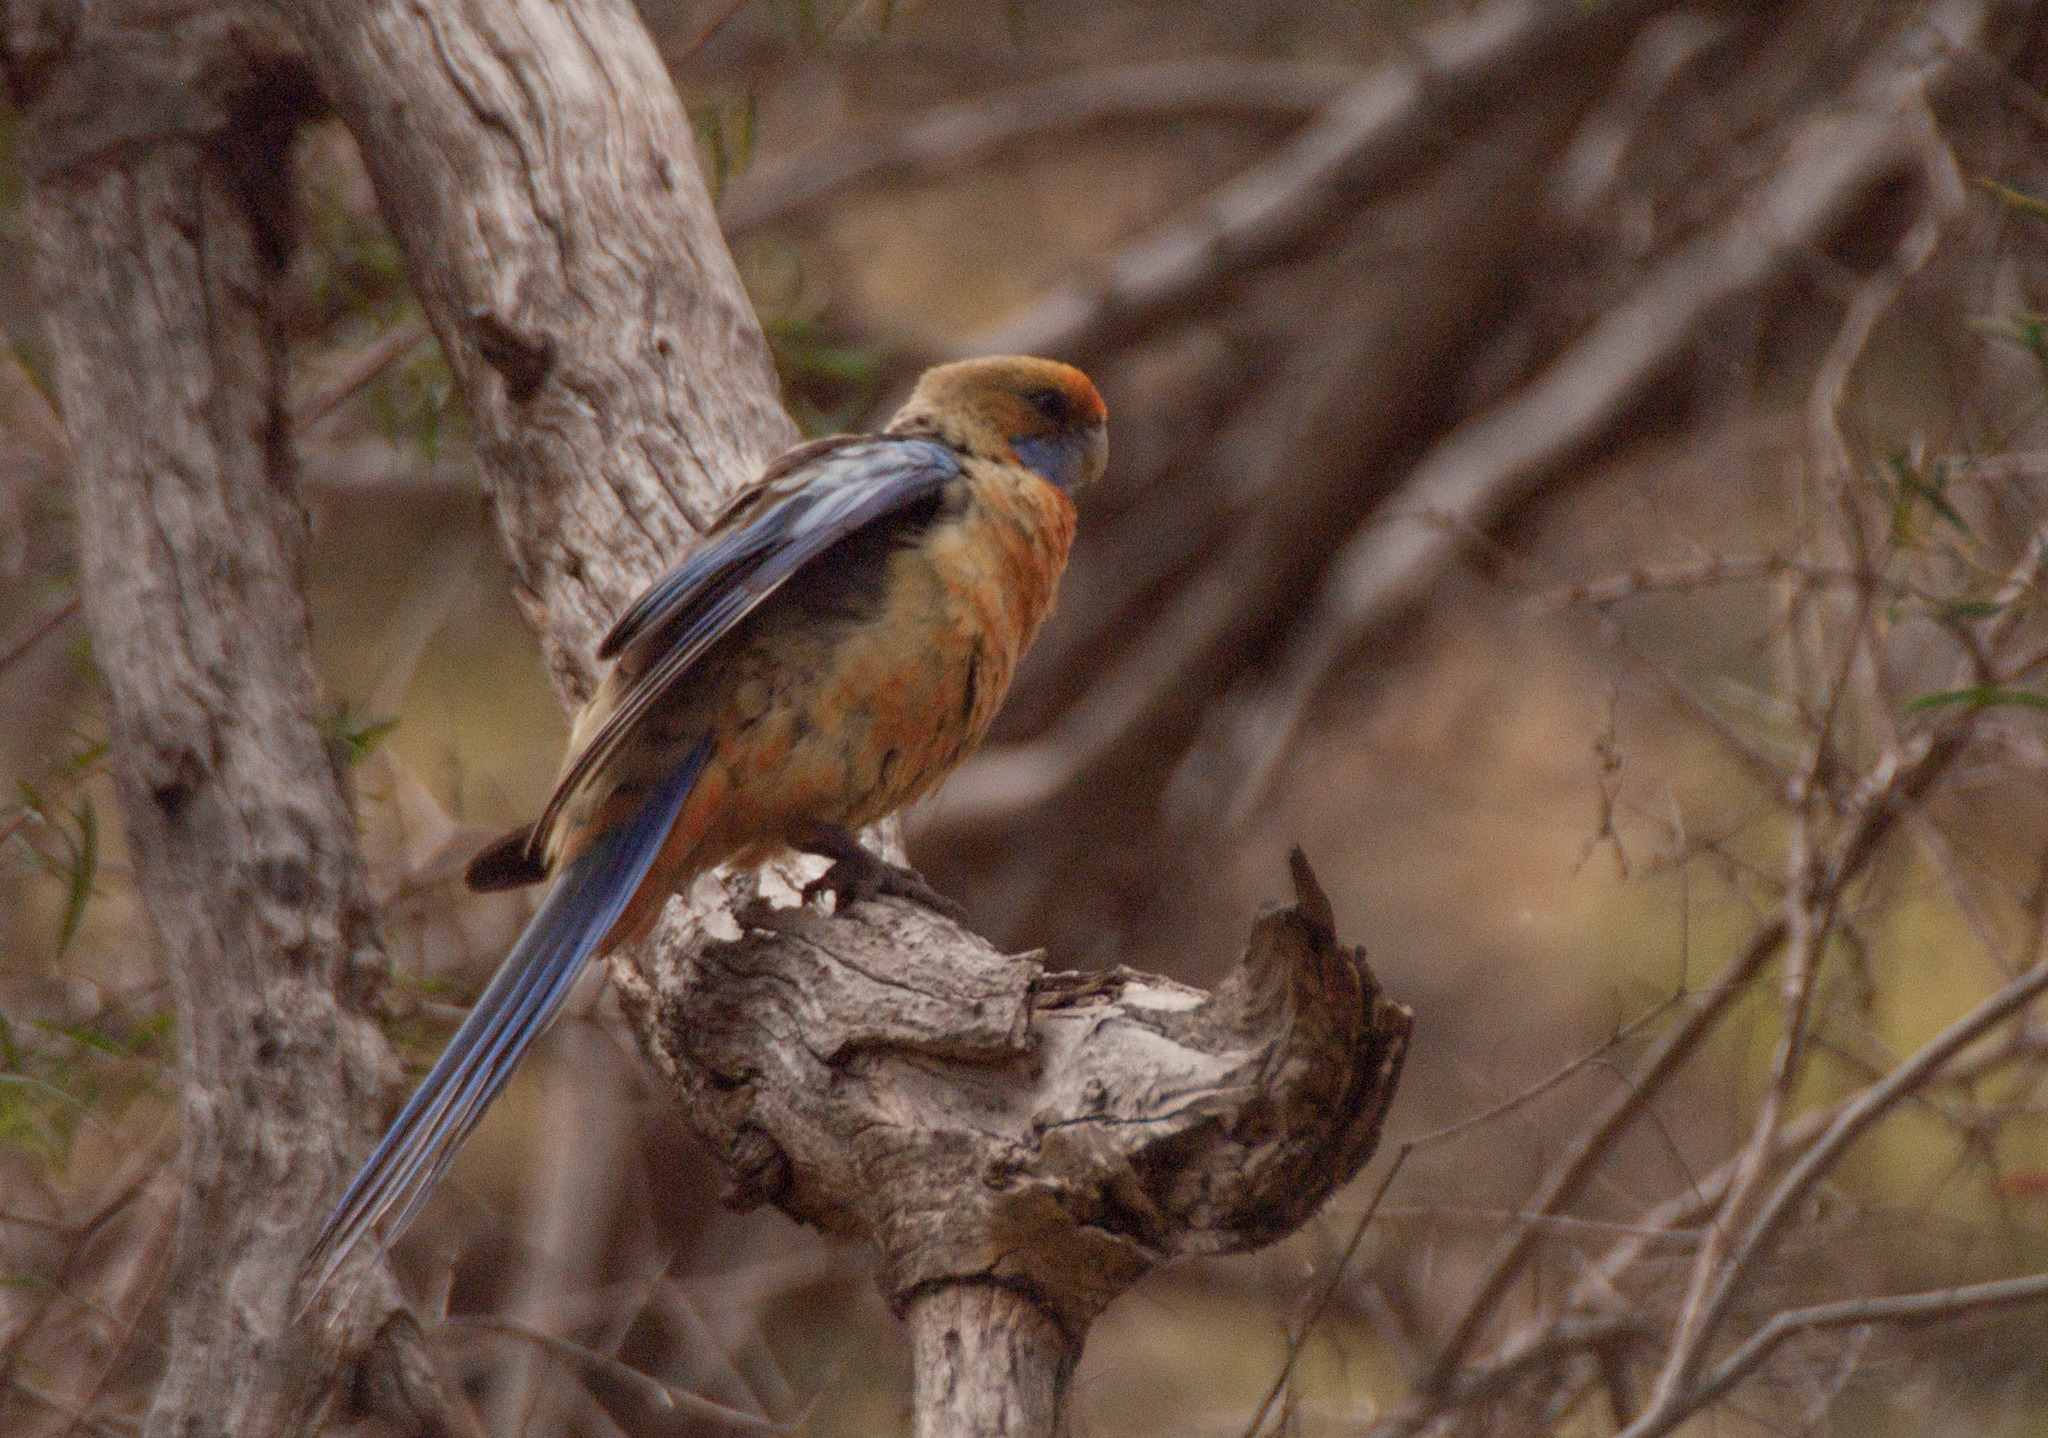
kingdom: Animalia
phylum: Chordata
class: Aves
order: Psittaciformes
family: Psittacidae
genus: Platycercus
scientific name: Platycercus elegans
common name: Crimson rosella
